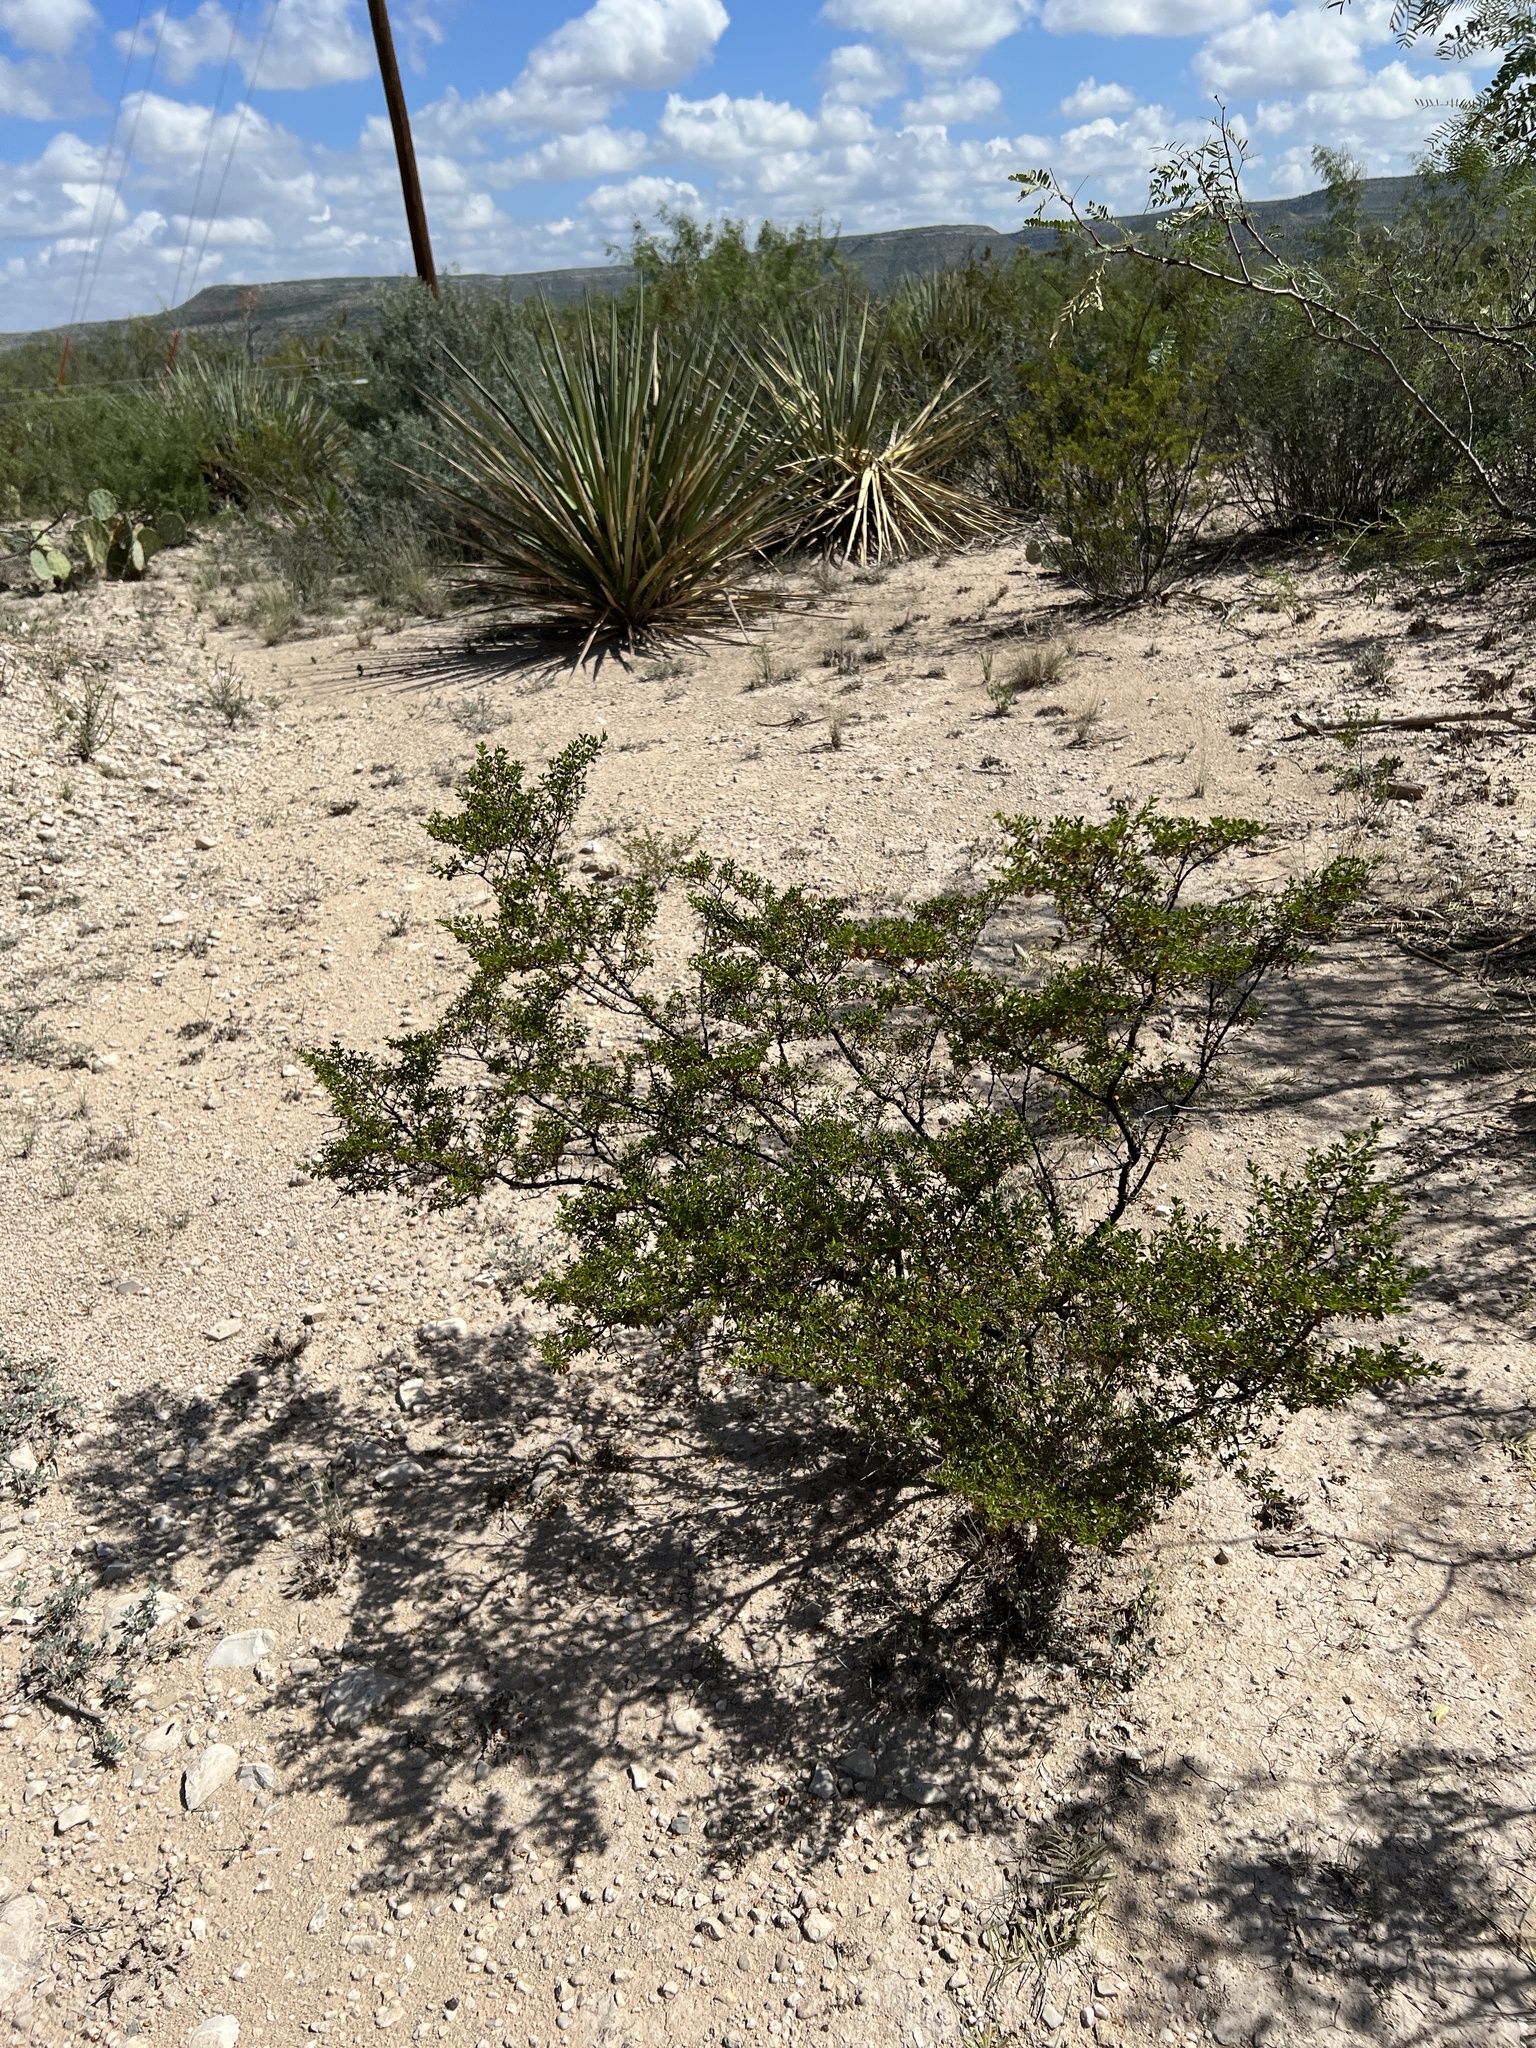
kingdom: Plantae
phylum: Tracheophyta
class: Magnoliopsida
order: Zygophyllales
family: Zygophyllaceae
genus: Larrea
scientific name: Larrea tridentata
